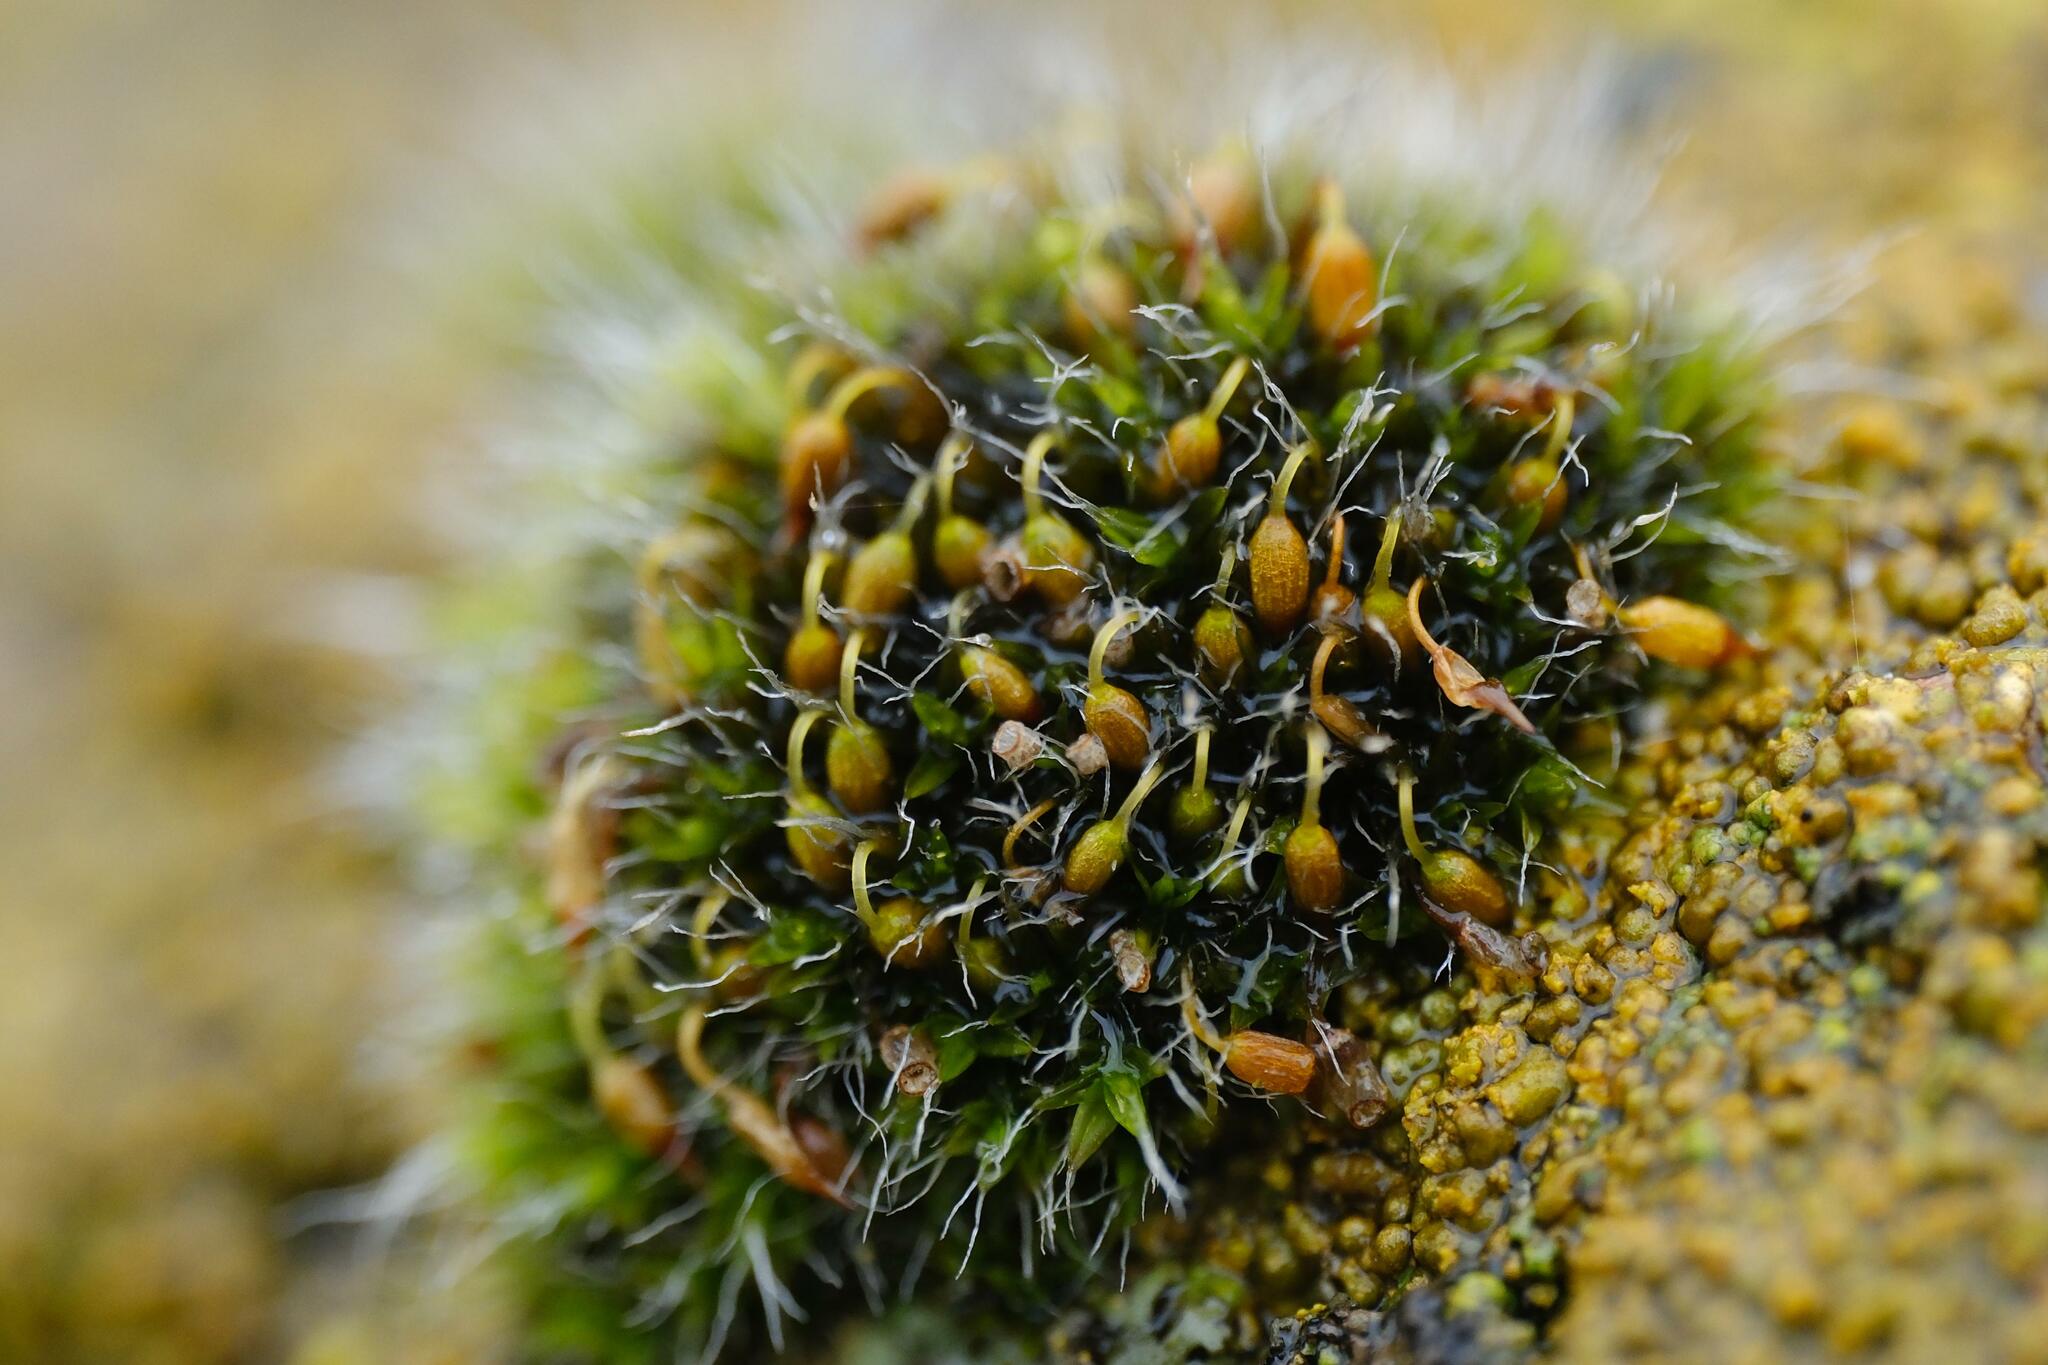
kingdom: Plantae
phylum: Bryophyta
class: Bryopsida
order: Grimmiales
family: Grimmiaceae
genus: Grimmia
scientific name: Grimmia pulvinata
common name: Grey-cushioned grimmia
